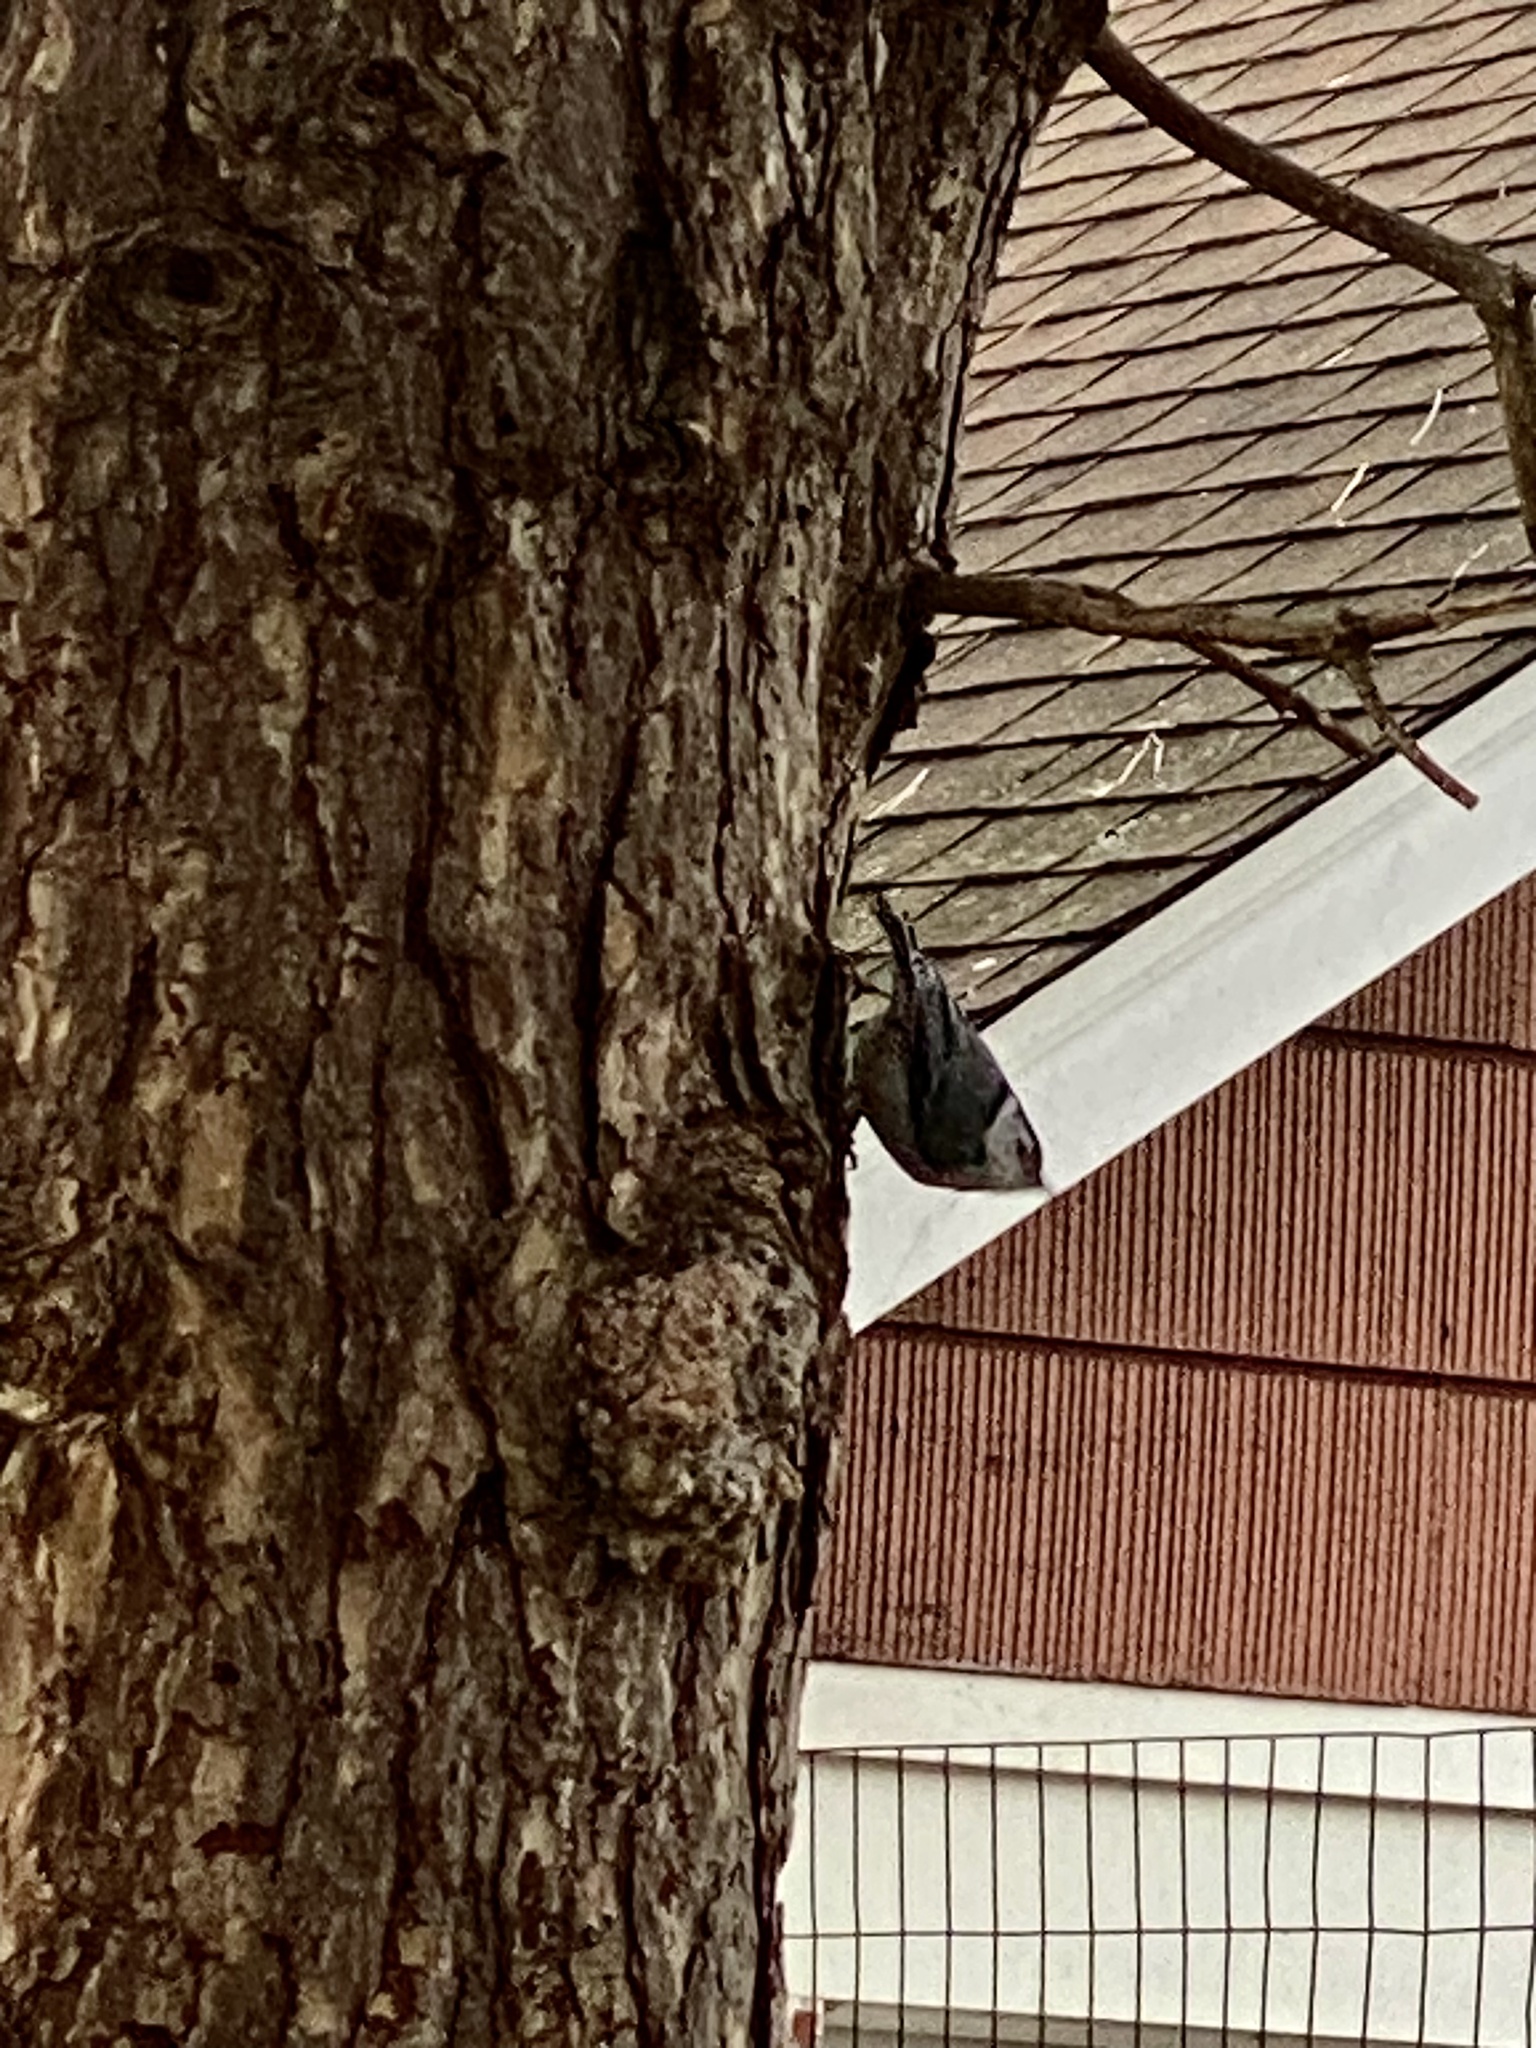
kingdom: Animalia
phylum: Chordata
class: Aves
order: Passeriformes
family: Sittidae
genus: Sitta
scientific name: Sitta carolinensis
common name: White-breasted nuthatch
